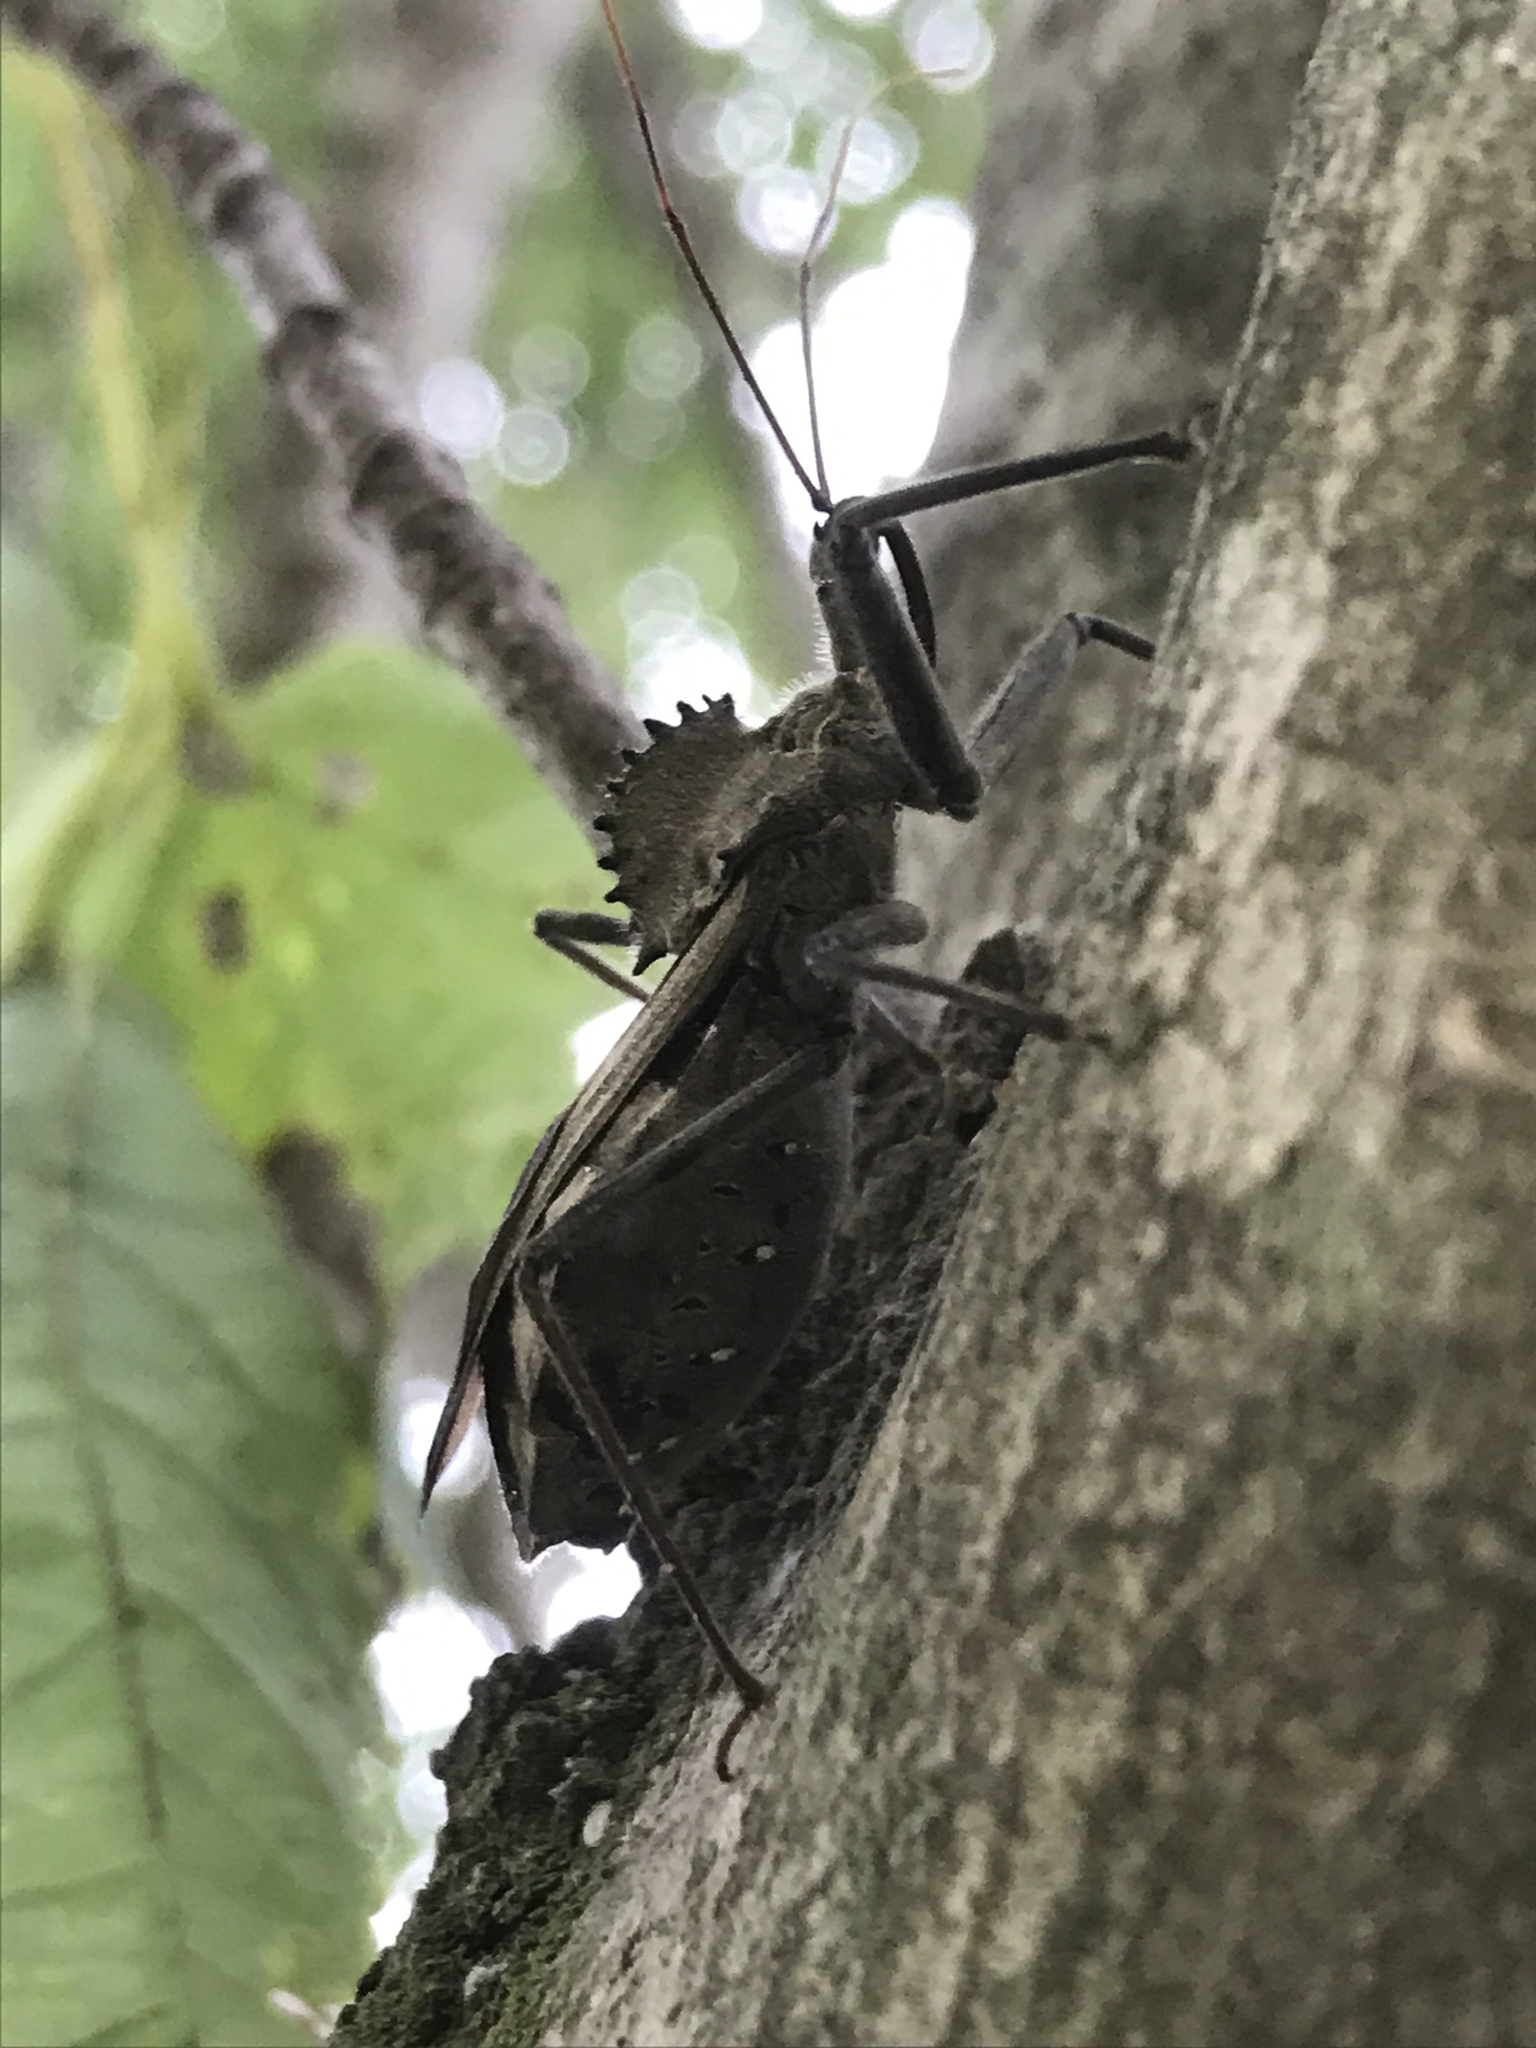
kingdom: Animalia
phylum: Arthropoda
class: Insecta
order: Hemiptera
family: Reduviidae
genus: Arilus
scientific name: Arilus cristatus
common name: North american wheel bug
